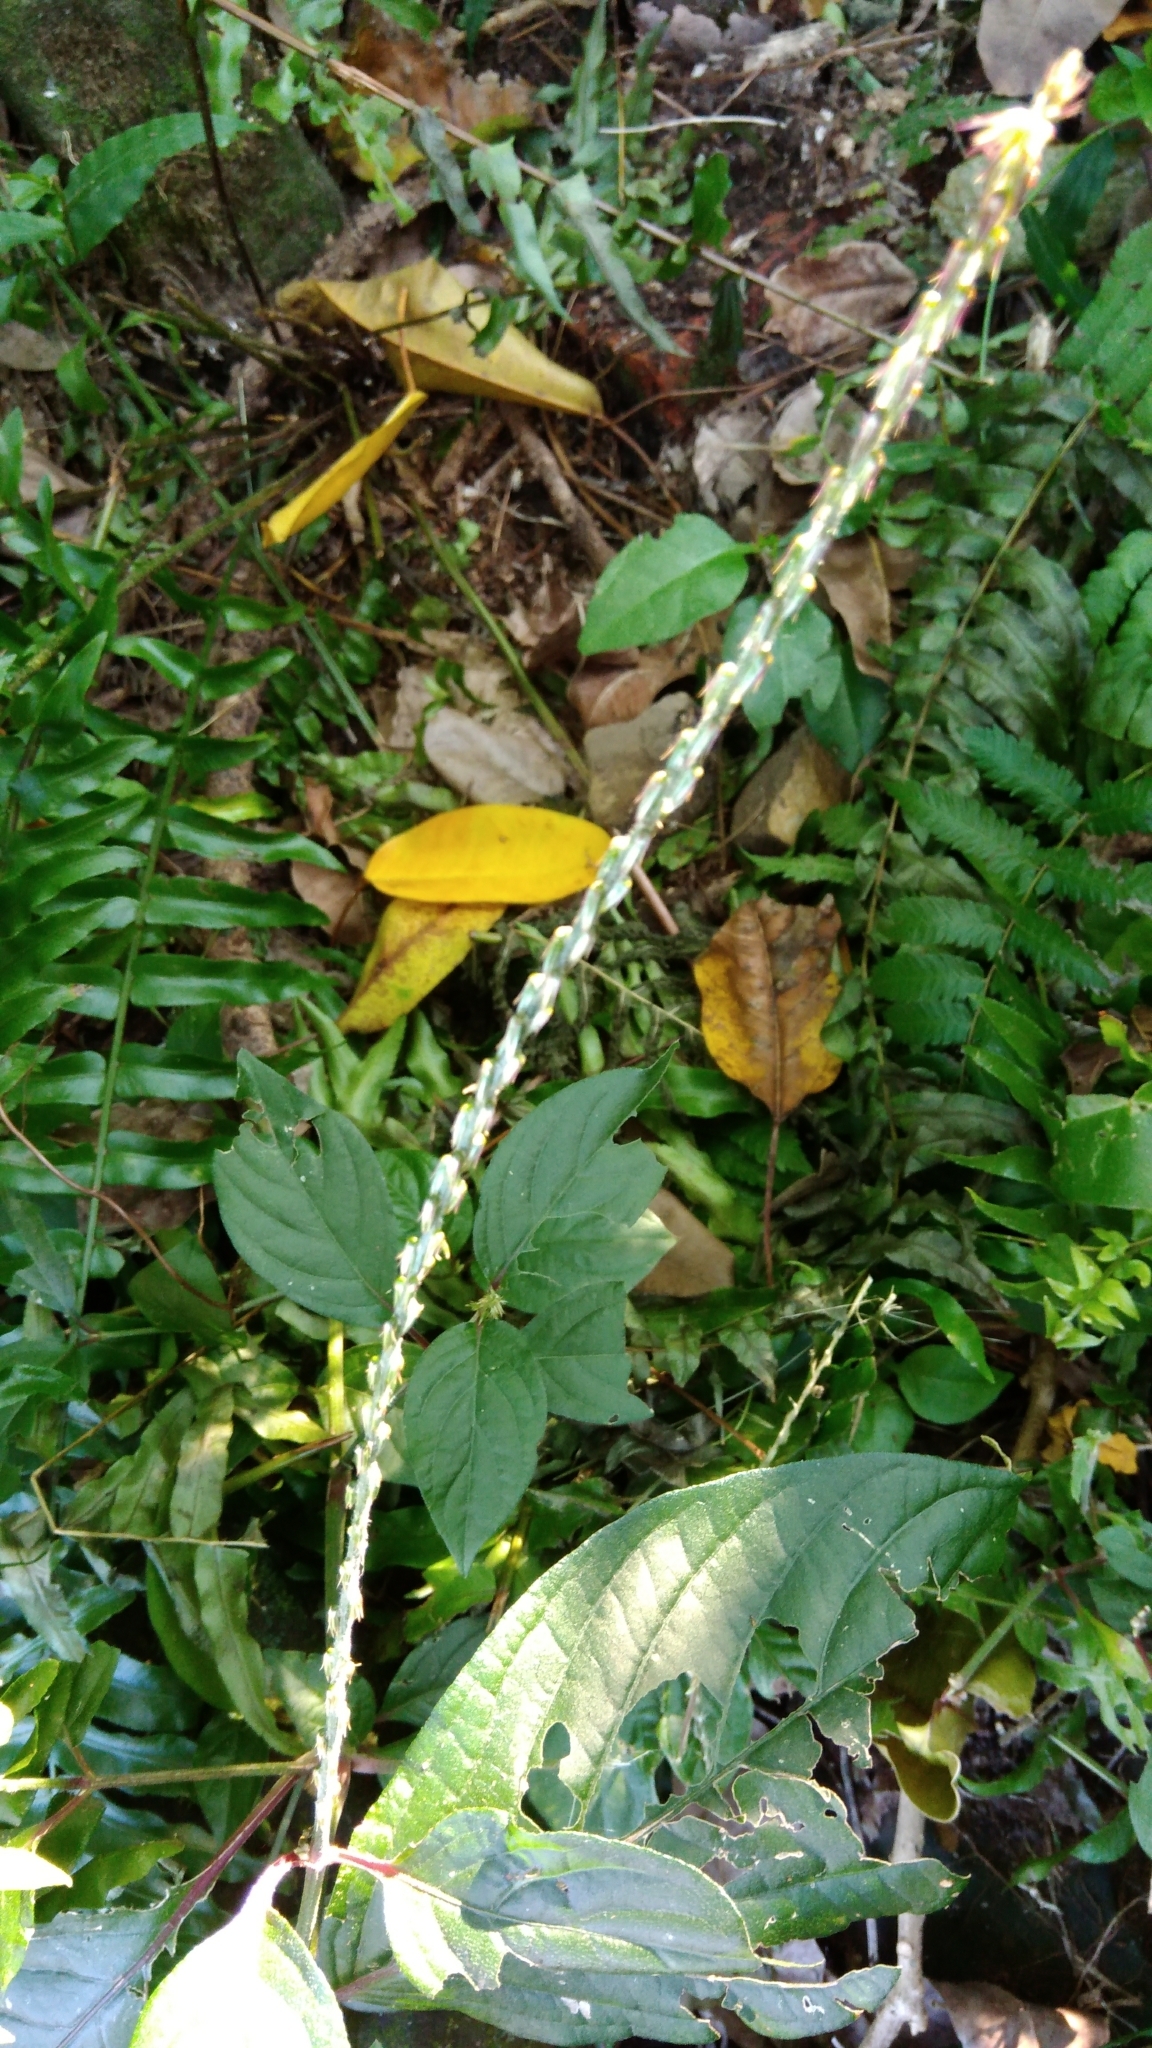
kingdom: Plantae
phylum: Tracheophyta
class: Magnoliopsida
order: Caryophyllales
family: Amaranthaceae
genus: Achyranthes
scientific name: Achyranthes aspera
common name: Devil's horsewhip
